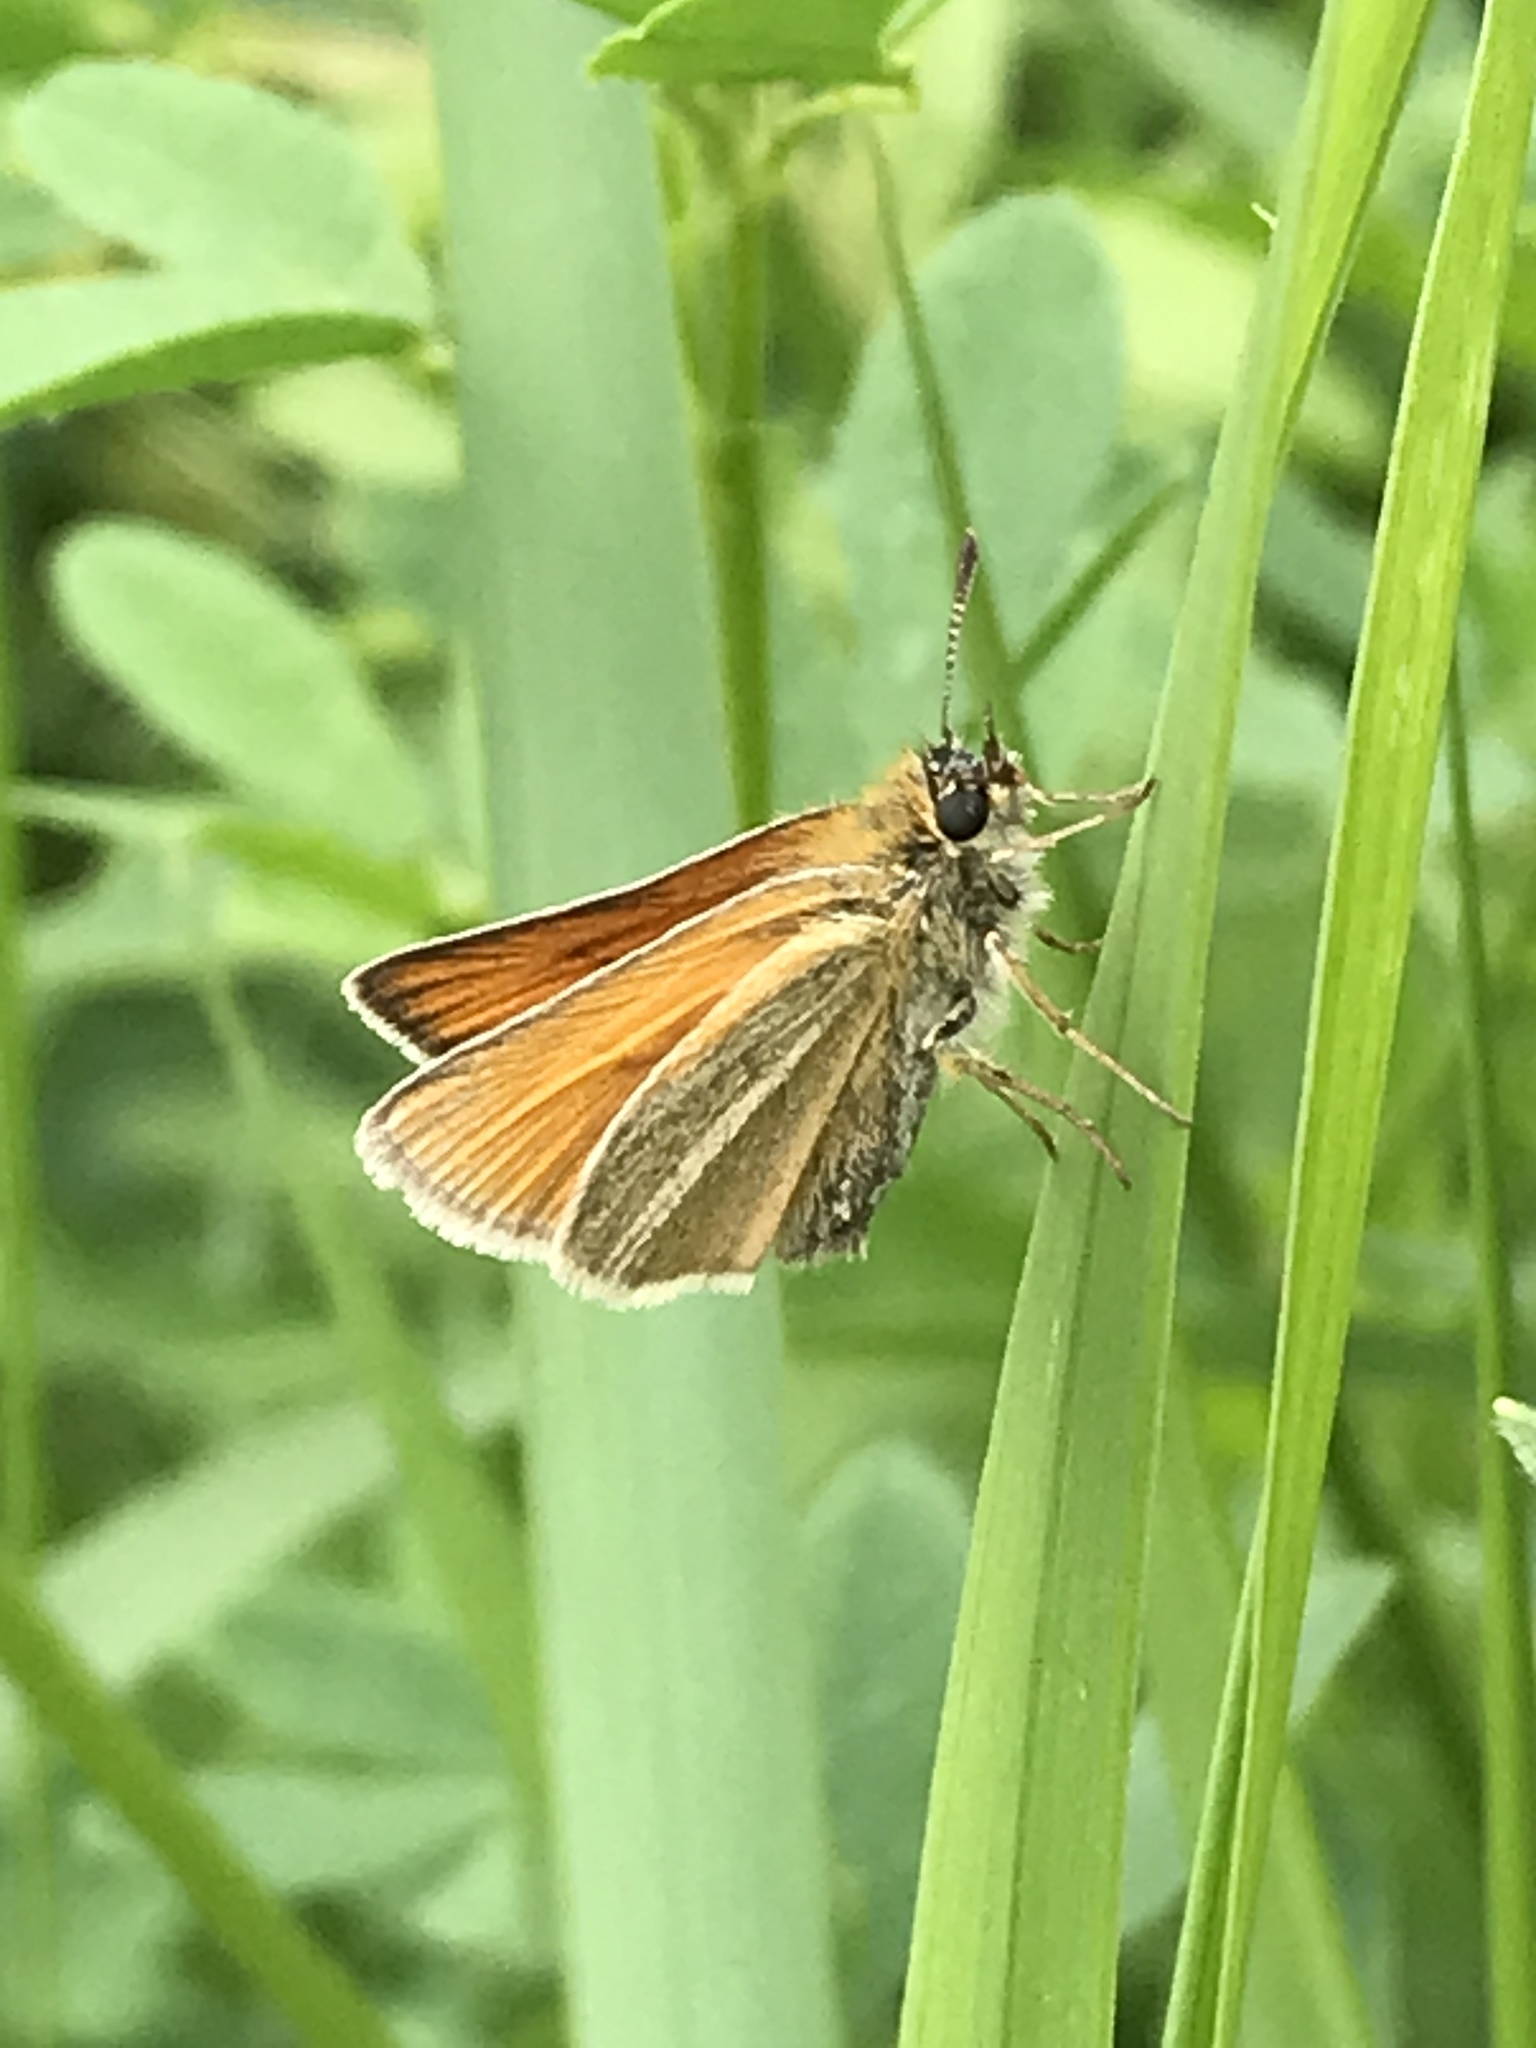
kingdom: Animalia
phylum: Arthropoda
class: Insecta
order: Lepidoptera
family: Hesperiidae
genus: Thymelicus
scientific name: Thymelicus lineola
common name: Essex skipper
